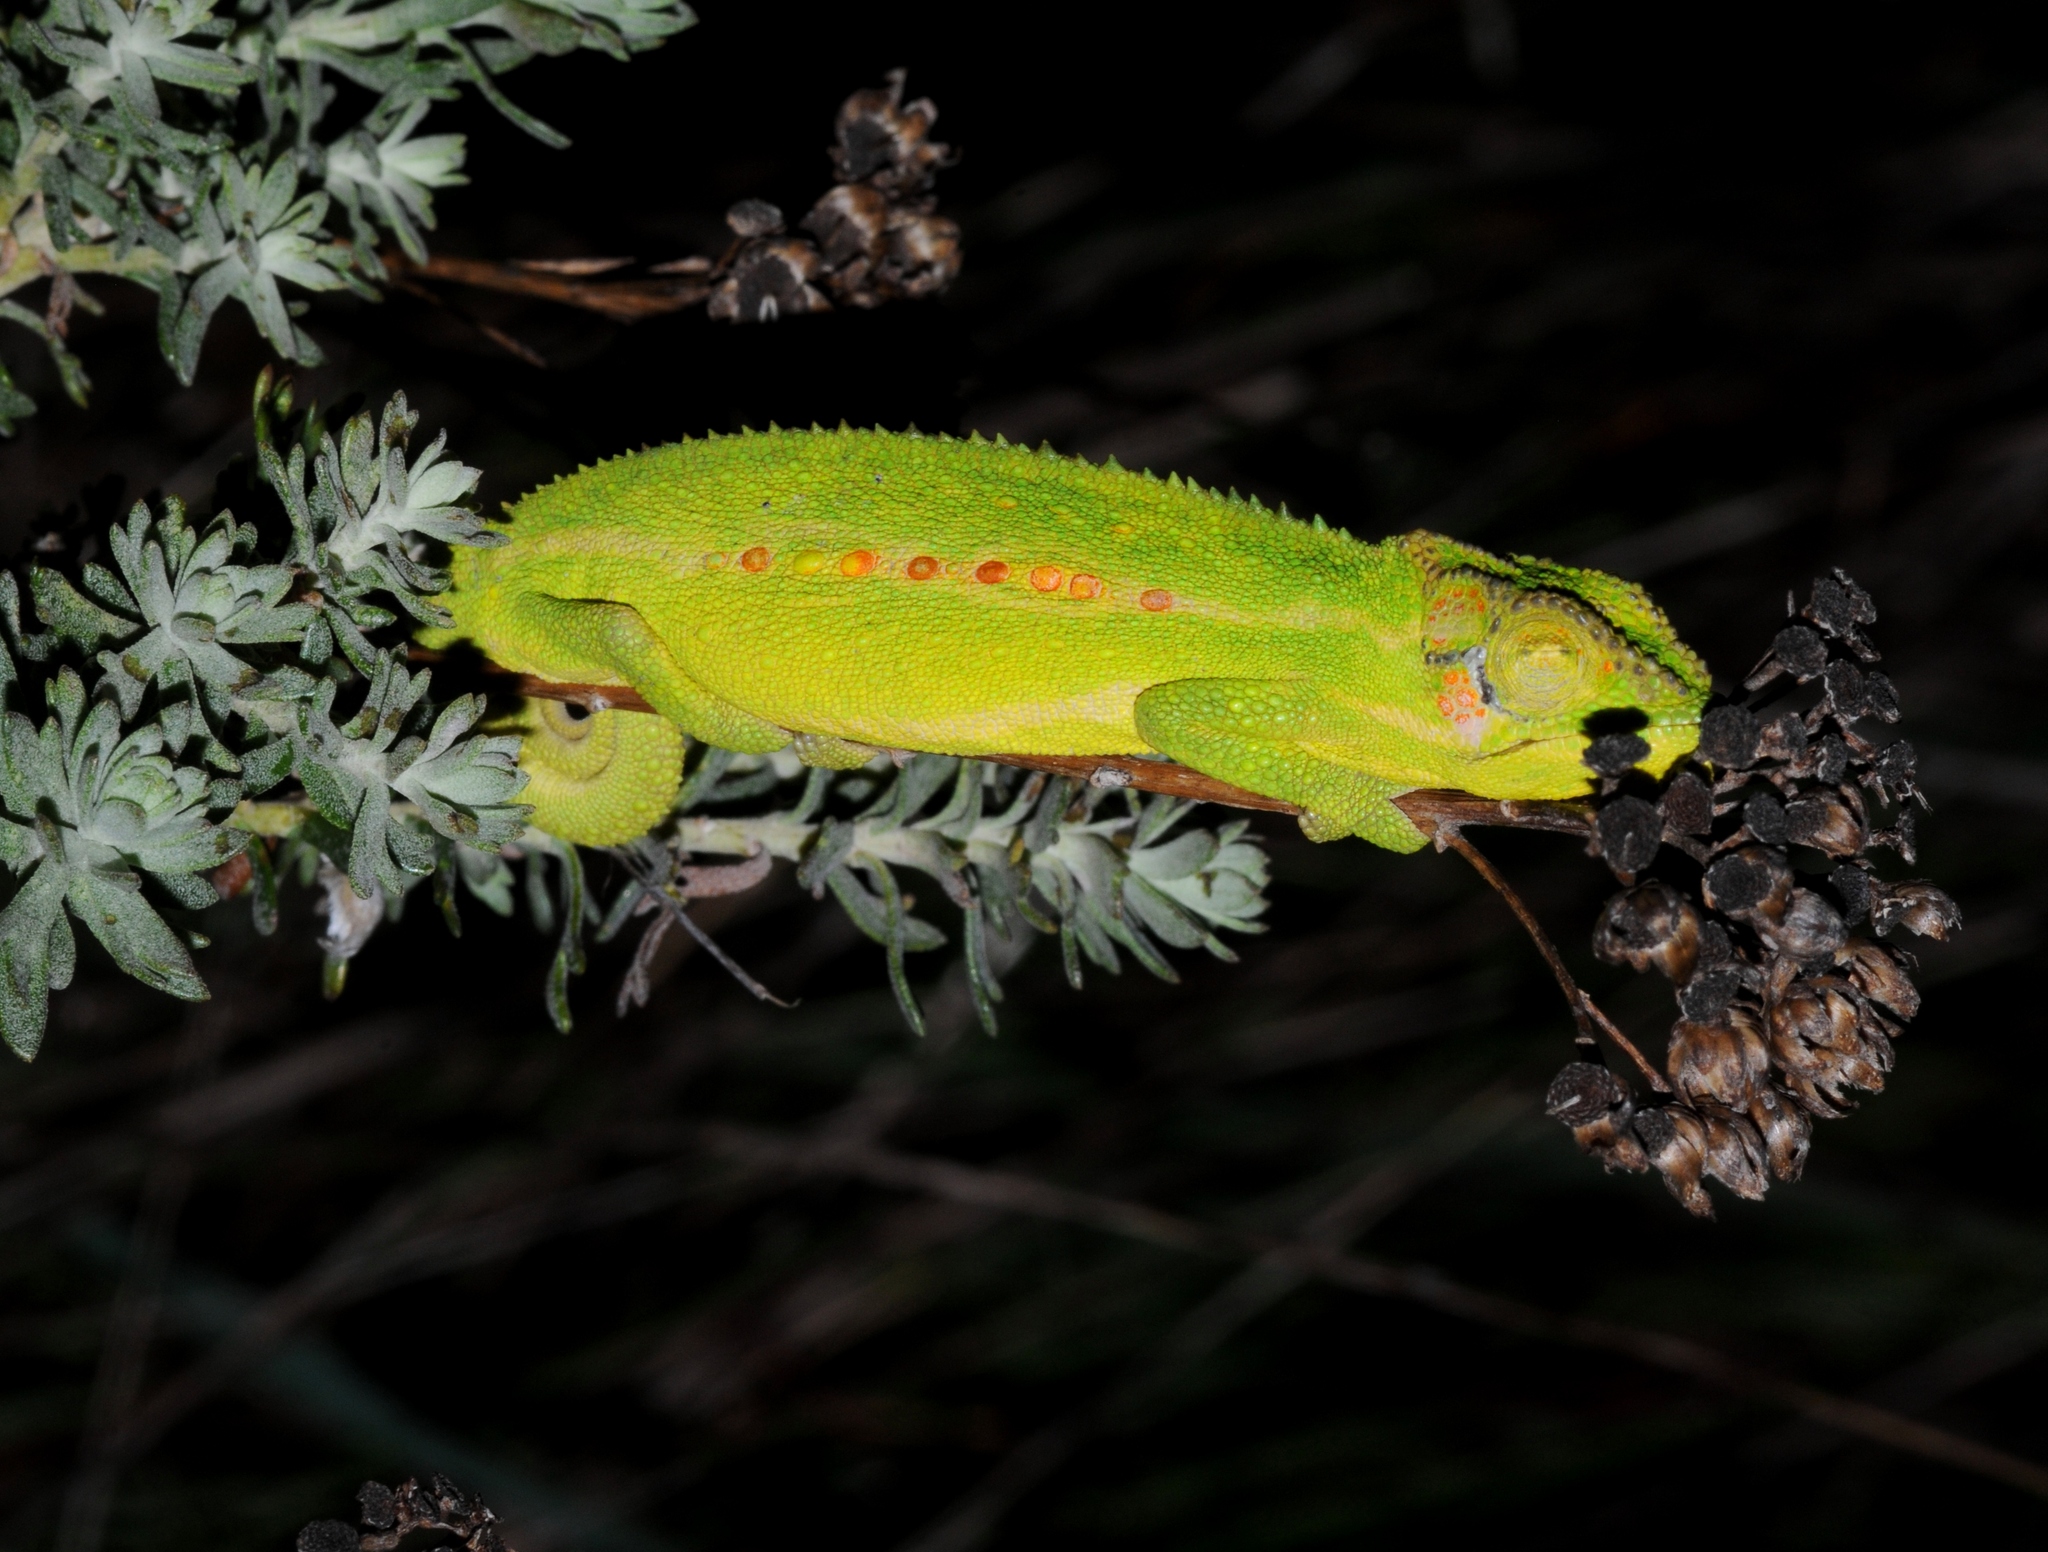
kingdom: Animalia
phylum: Chordata
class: Squamata
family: Chamaeleonidae
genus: Bradypodion
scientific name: Bradypodion pumilum
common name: Cape dwarf chameleon
